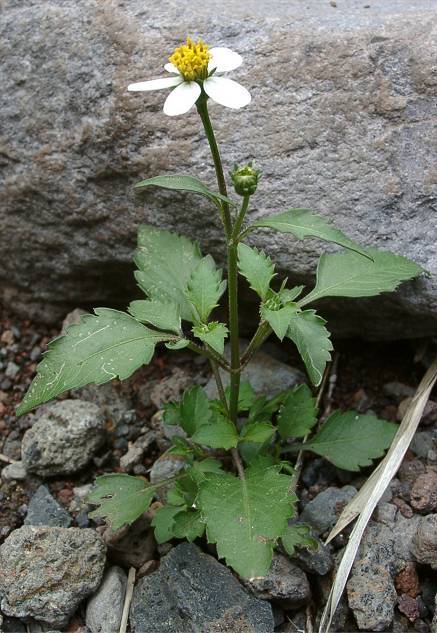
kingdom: Plantae
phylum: Tracheophyta
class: Magnoliopsida
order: Asterales
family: Asteraceae
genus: Bidens
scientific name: Bidens alba
